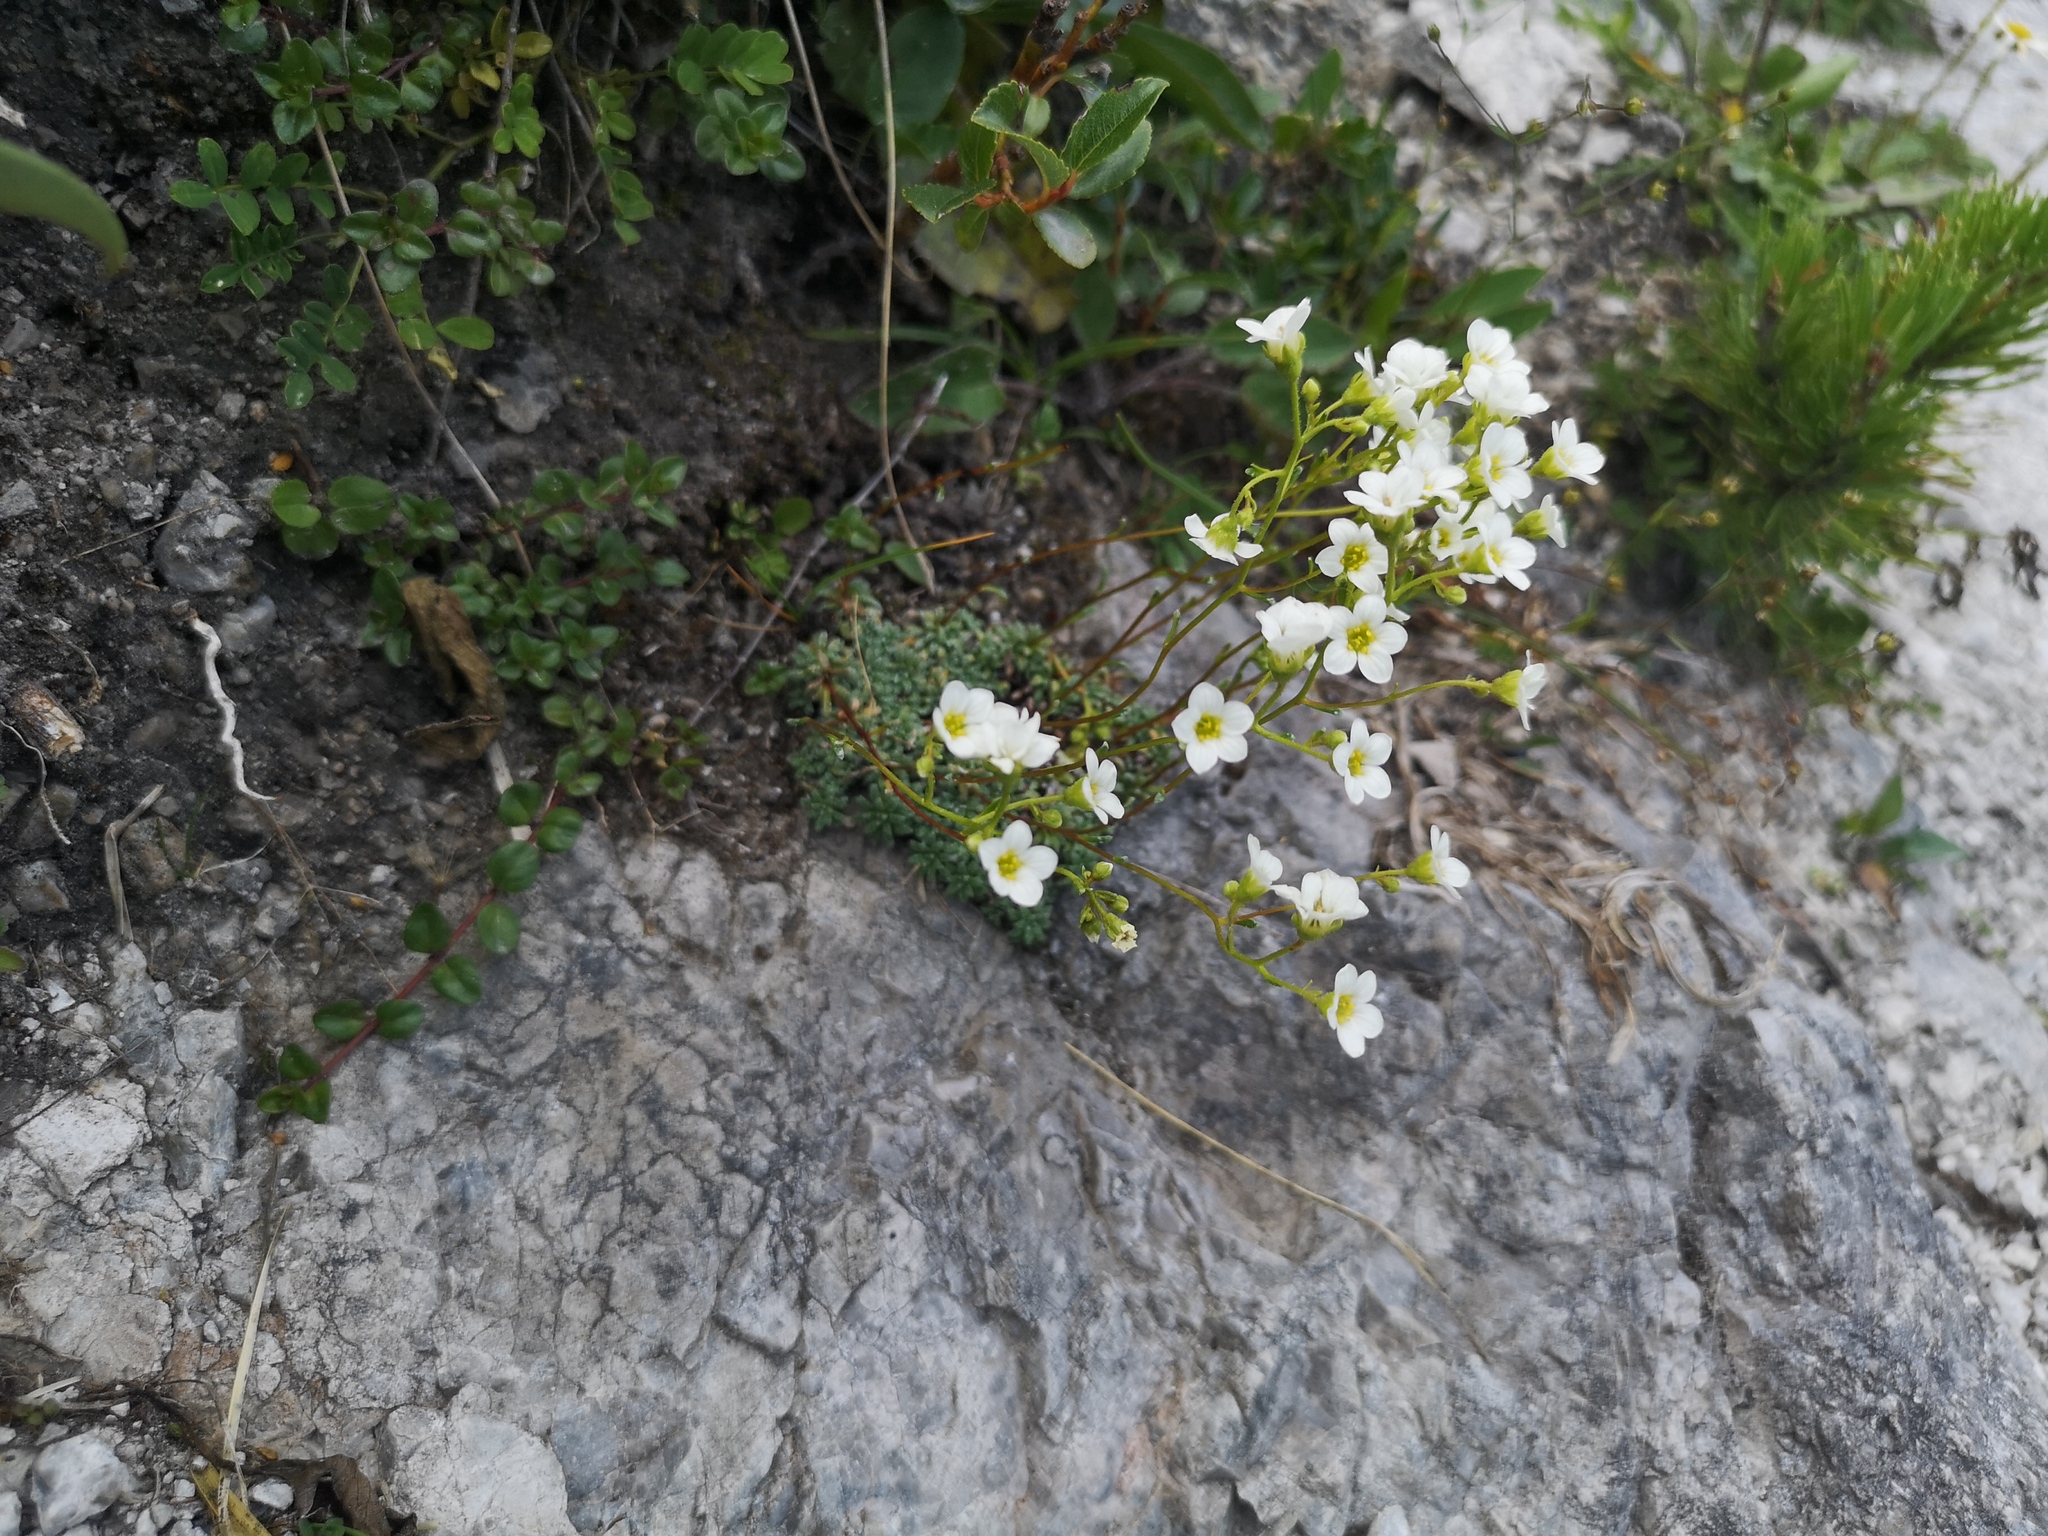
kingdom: Plantae
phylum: Tracheophyta
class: Magnoliopsida
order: Saxifragales
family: Saxifragaceae
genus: Saxifraga
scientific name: Saxifraga caesia
